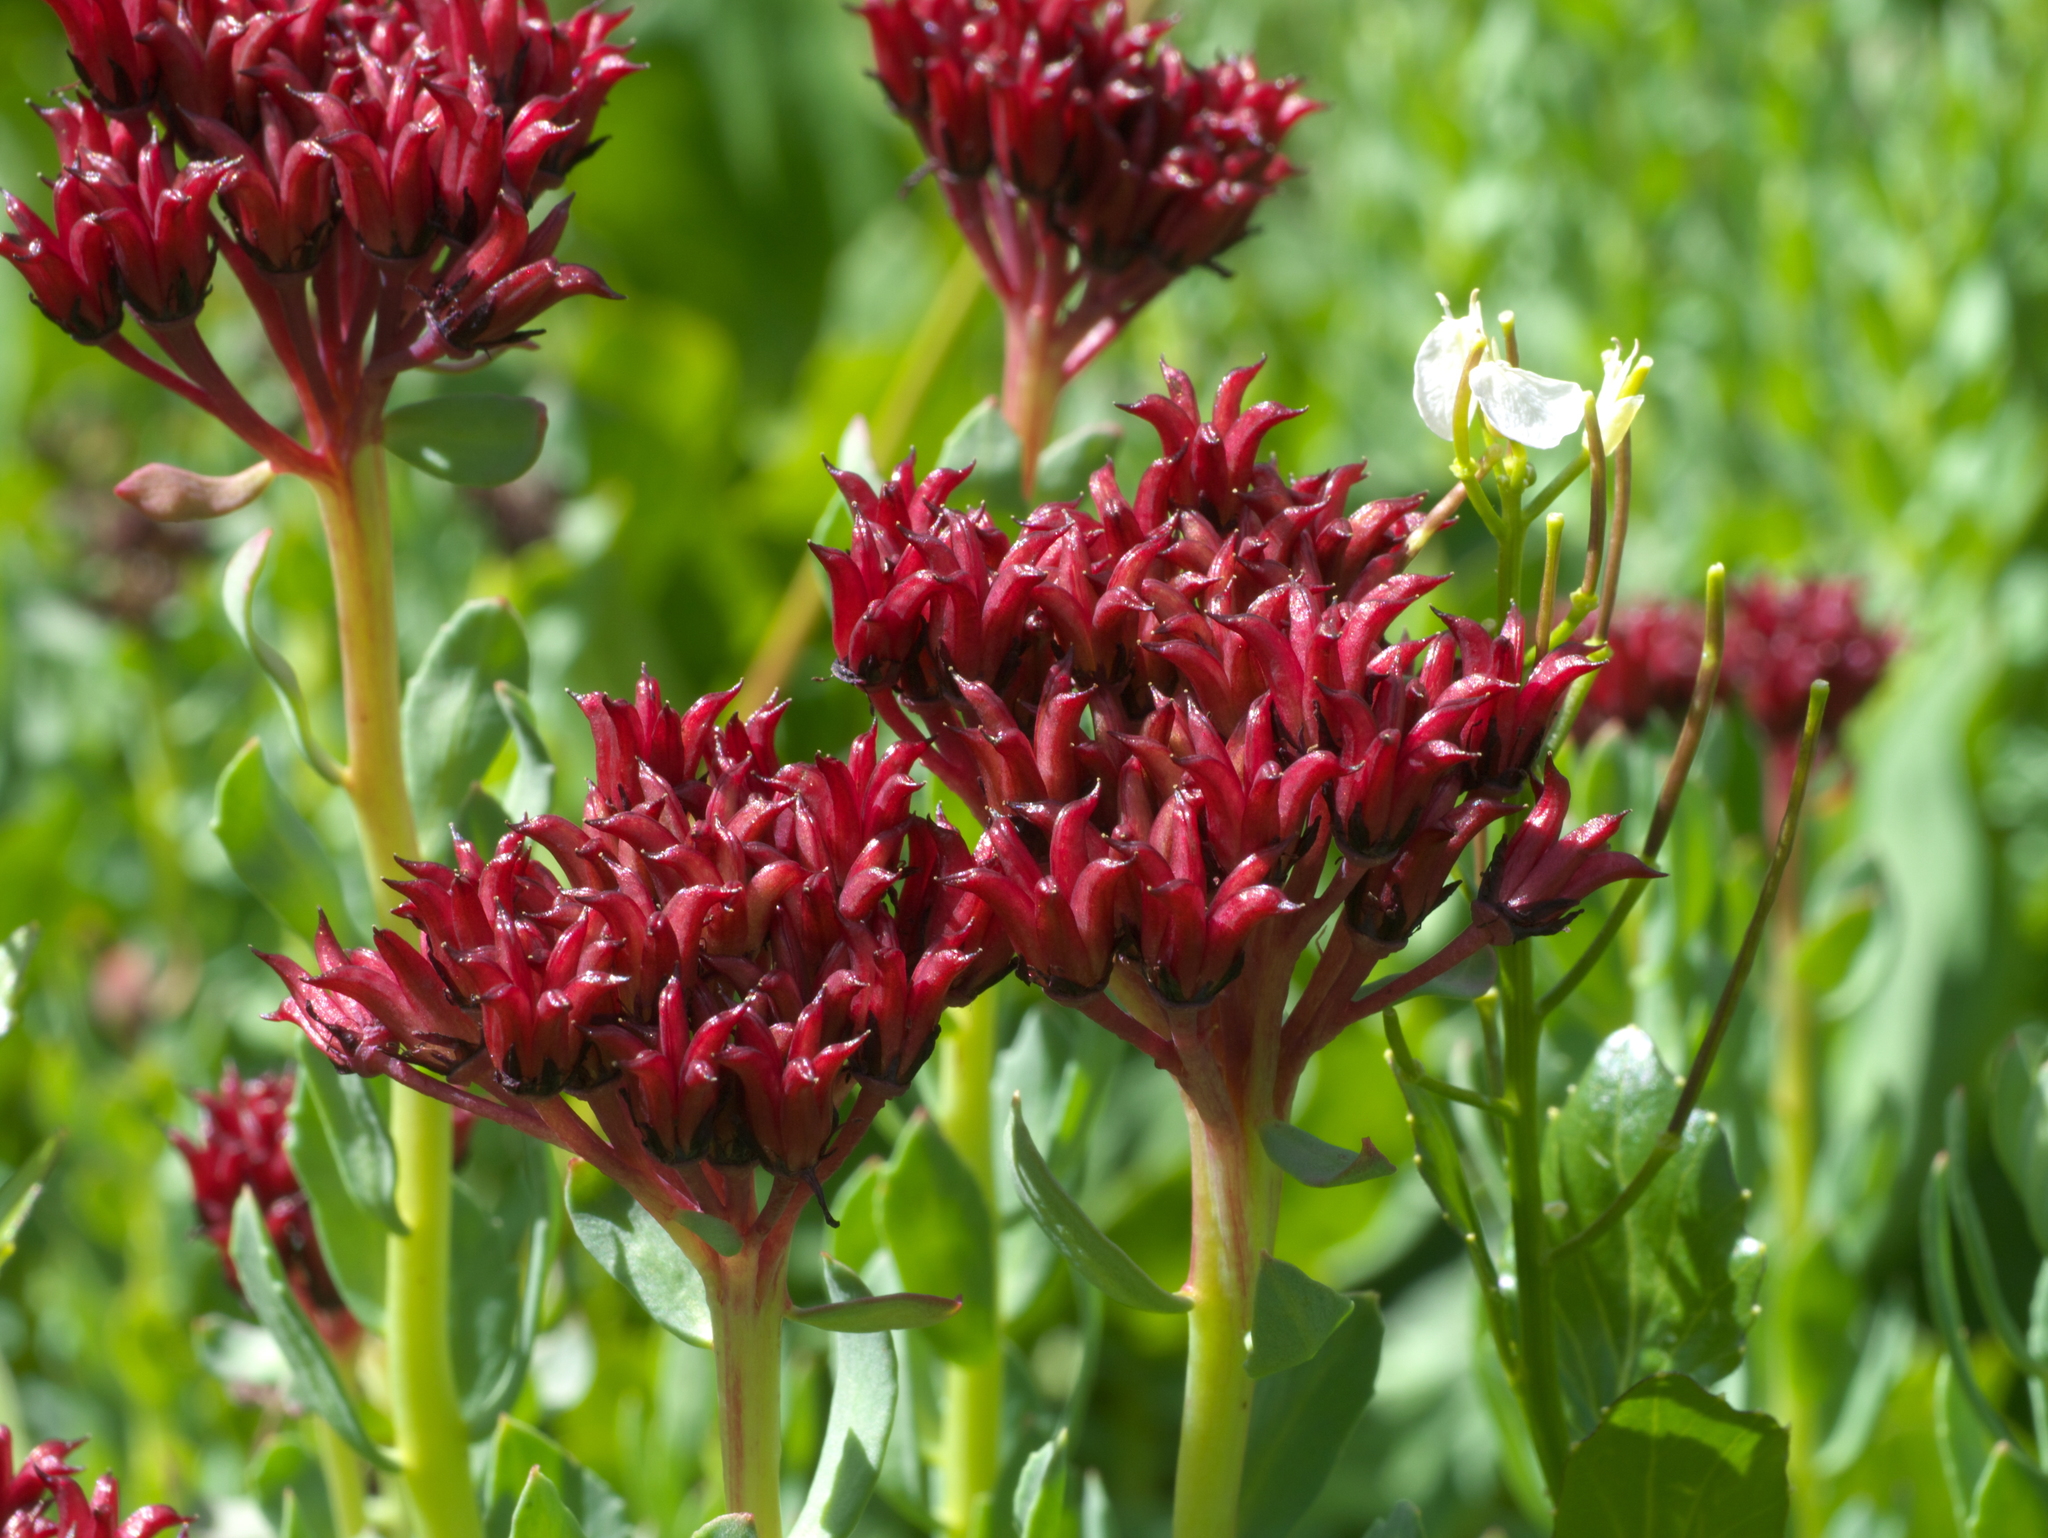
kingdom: Plantae
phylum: Tracheophyta
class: Magnoliopsida
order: Saxifragales
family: Crassulaceae
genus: Rhodiola
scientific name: Rhodiola integrifolia
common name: Western roseroot
